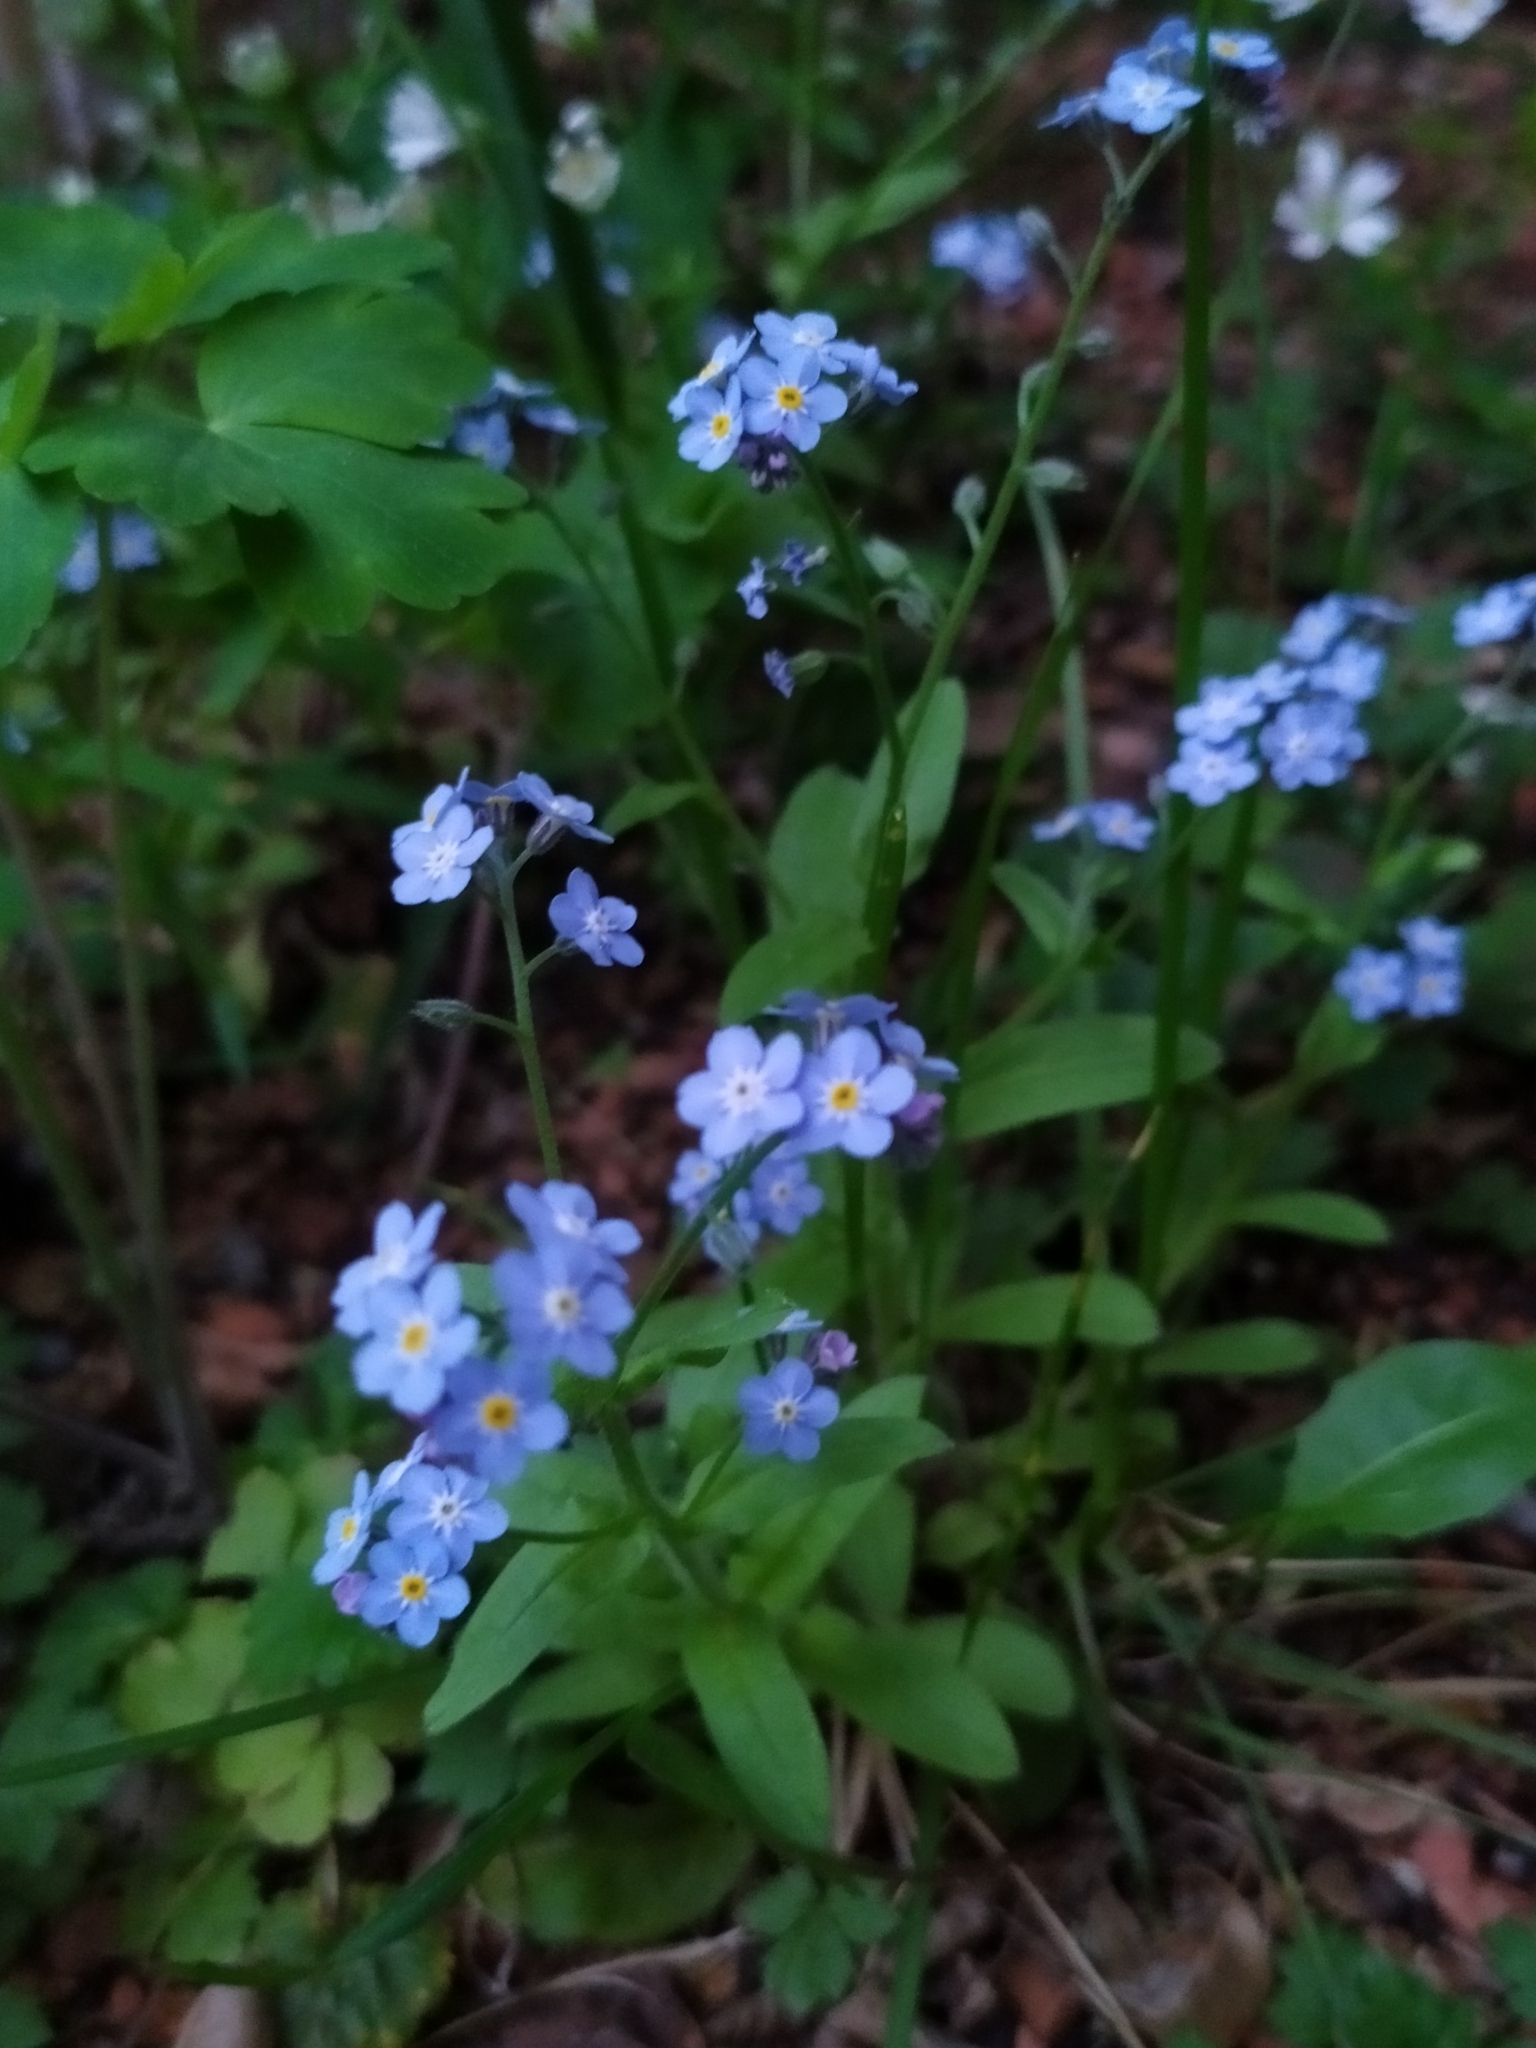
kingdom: Plantae
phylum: Tracheophyta
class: Magnoliopsida
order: Boraginales
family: Boraginaceae
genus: Myosotis
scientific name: Myosotis sylvatica
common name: Wood forget-me-not
